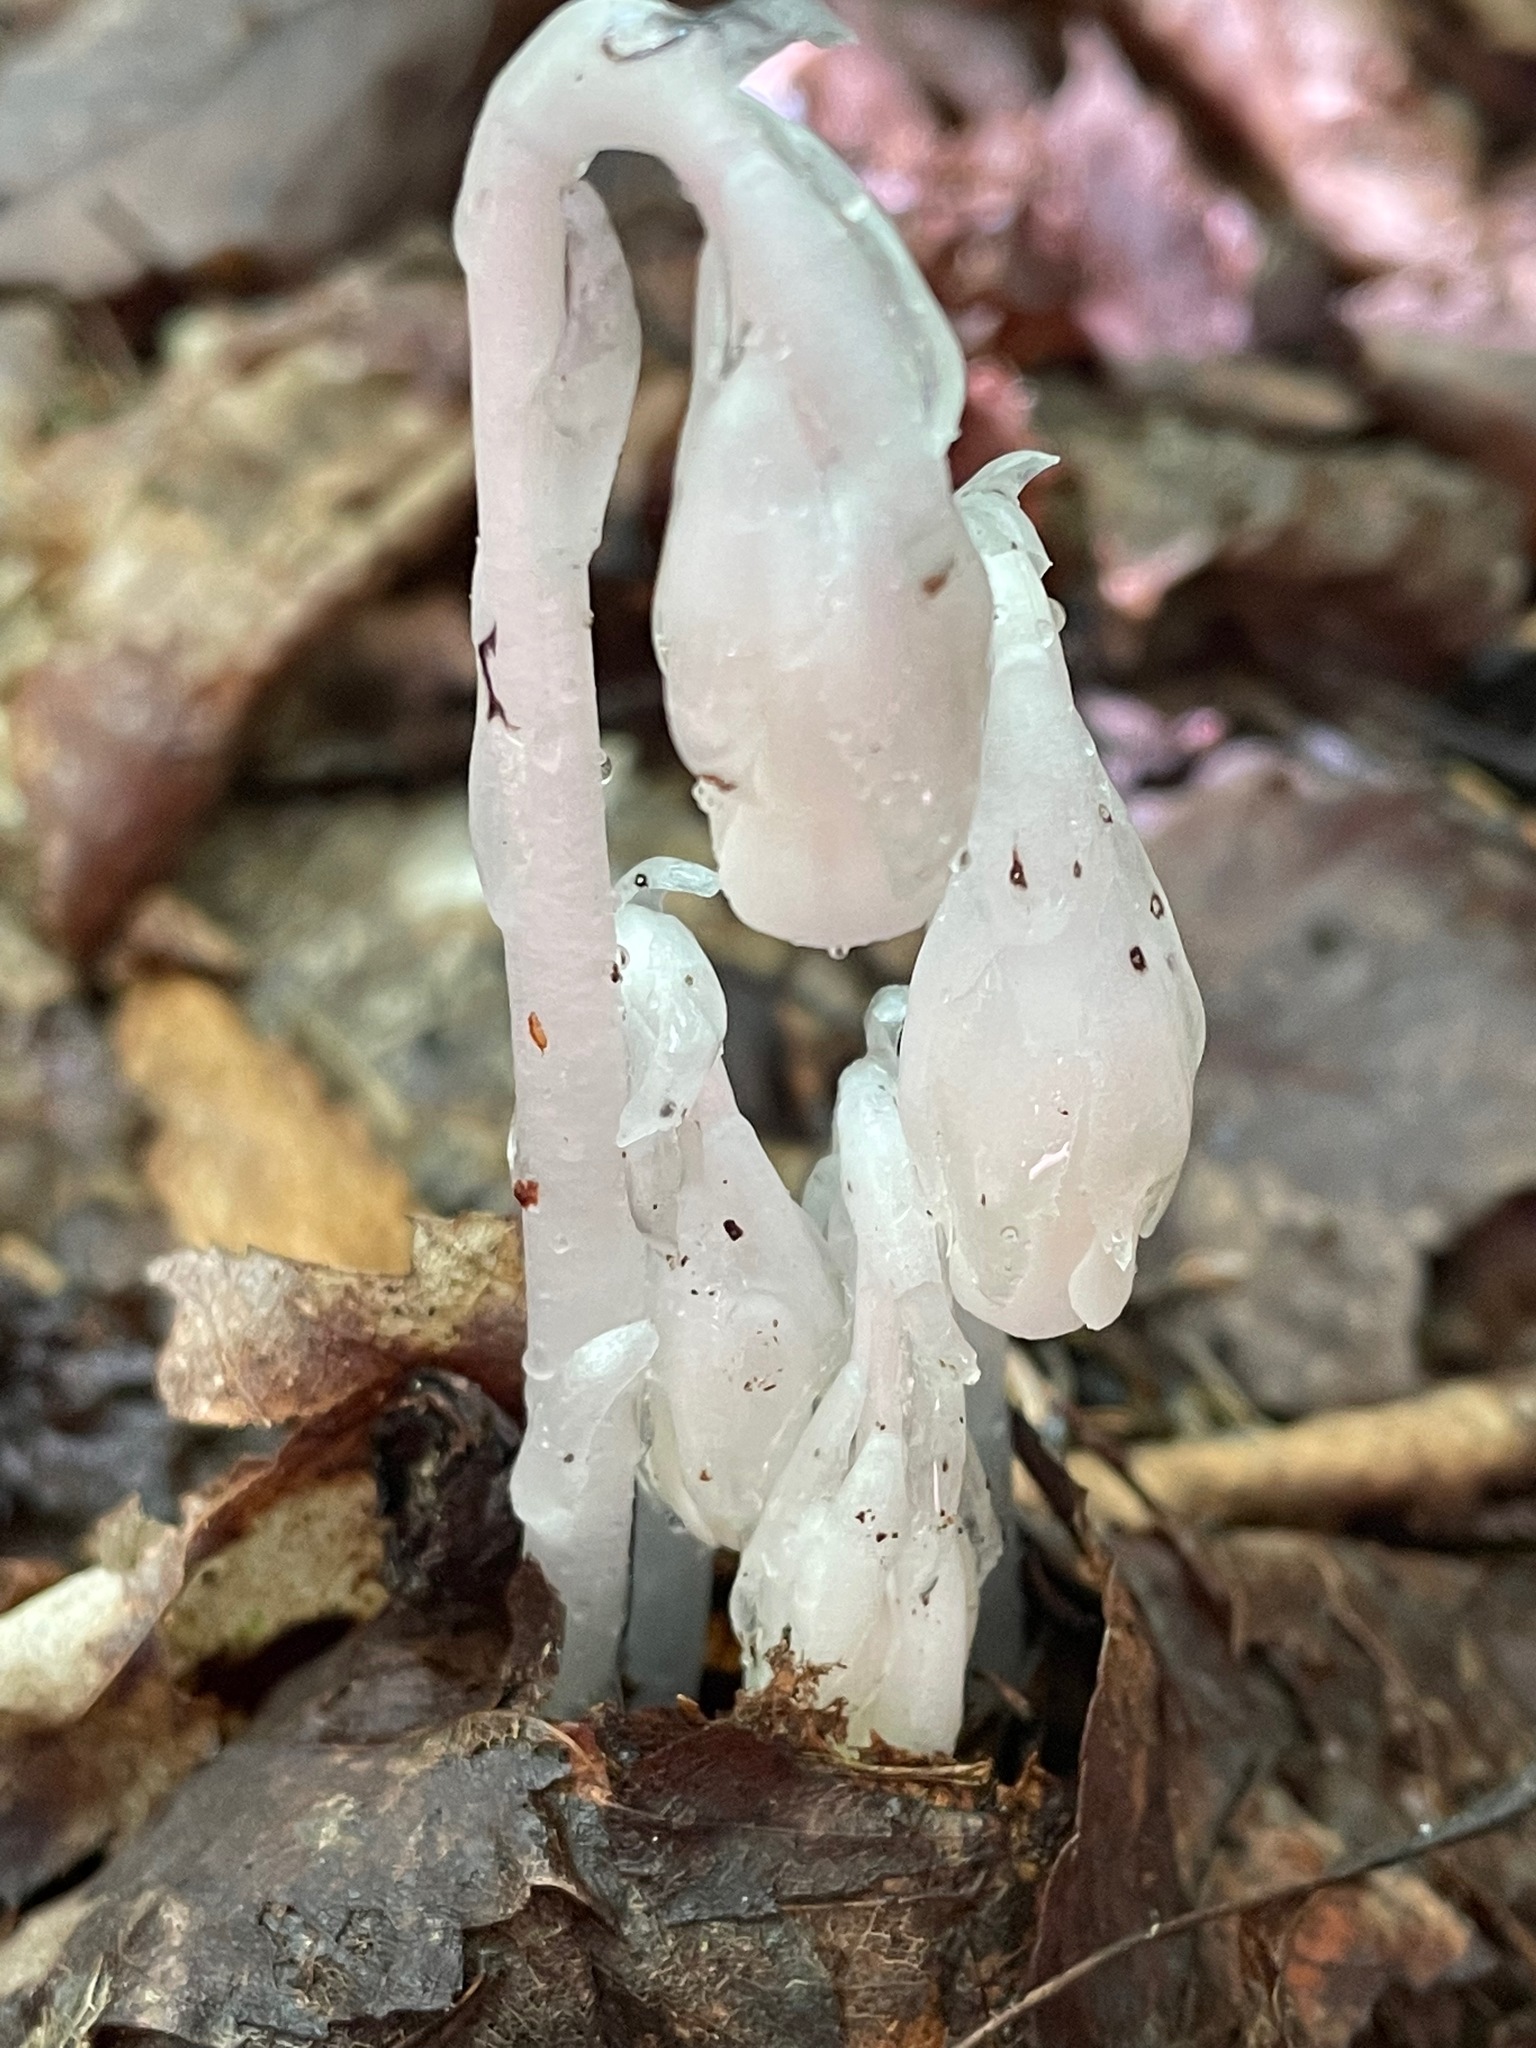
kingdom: Plantae
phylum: Tracheophyta
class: Magnoliopsida
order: Ericales
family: Ericaceae
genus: Monotropa
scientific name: Monotropa uniflora
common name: Convulsion root
